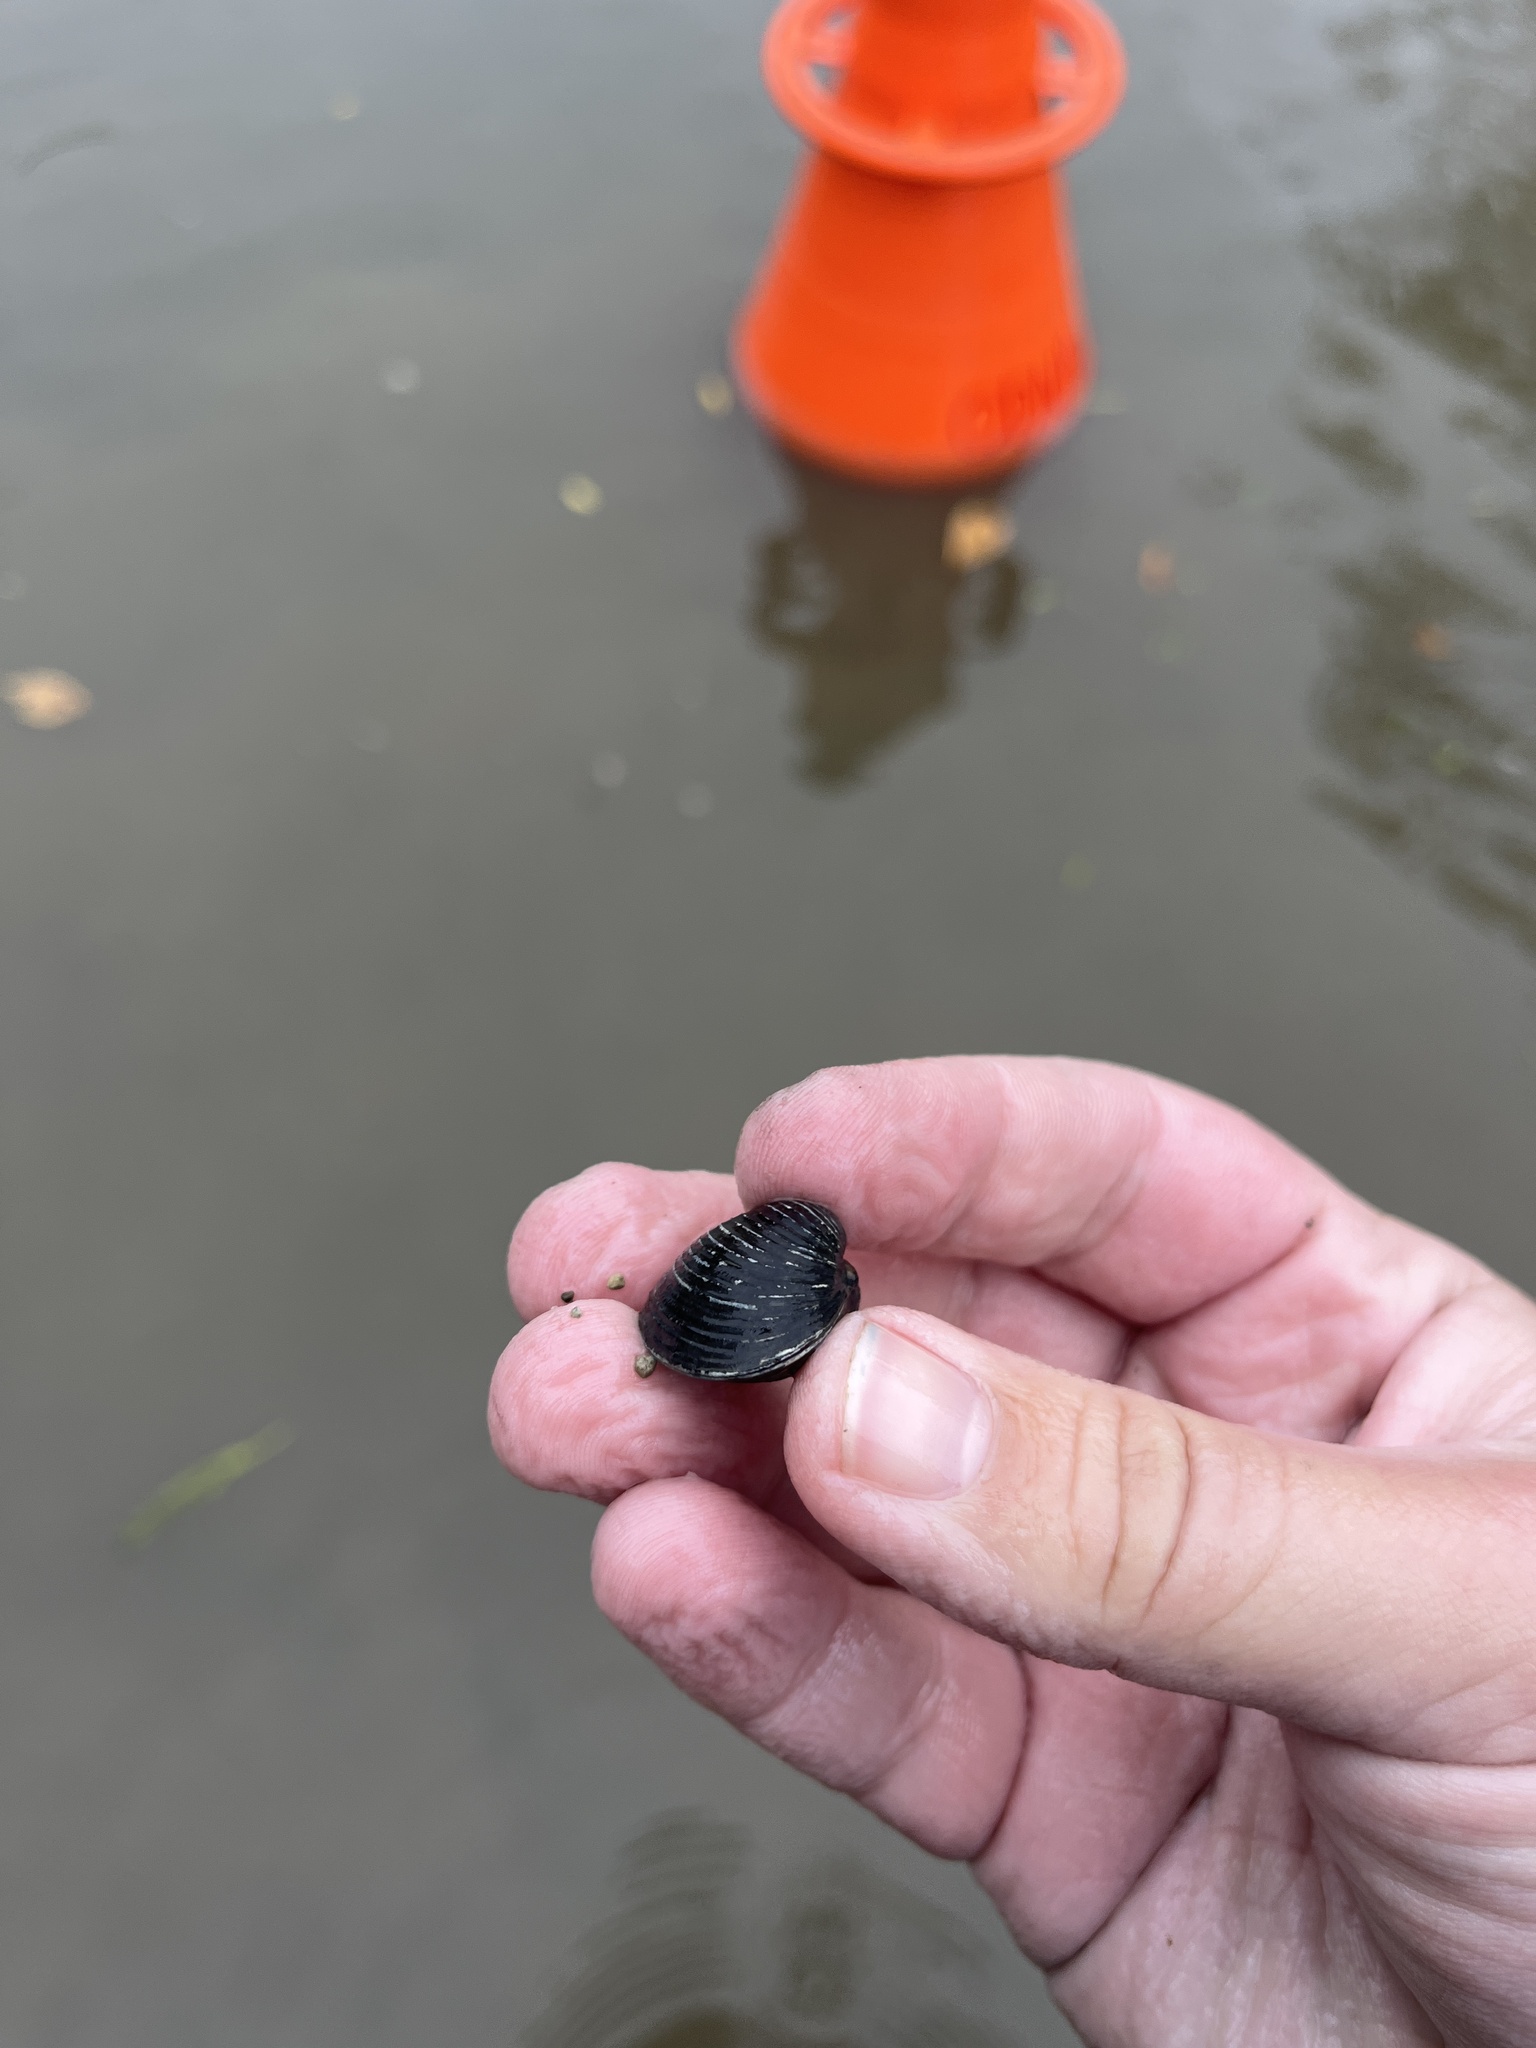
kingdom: Animalia
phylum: Mollusca
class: Bivalvia
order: Venerida
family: Cyrenidae
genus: Corbicula
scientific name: Corbicula fluminea
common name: Asian clam
